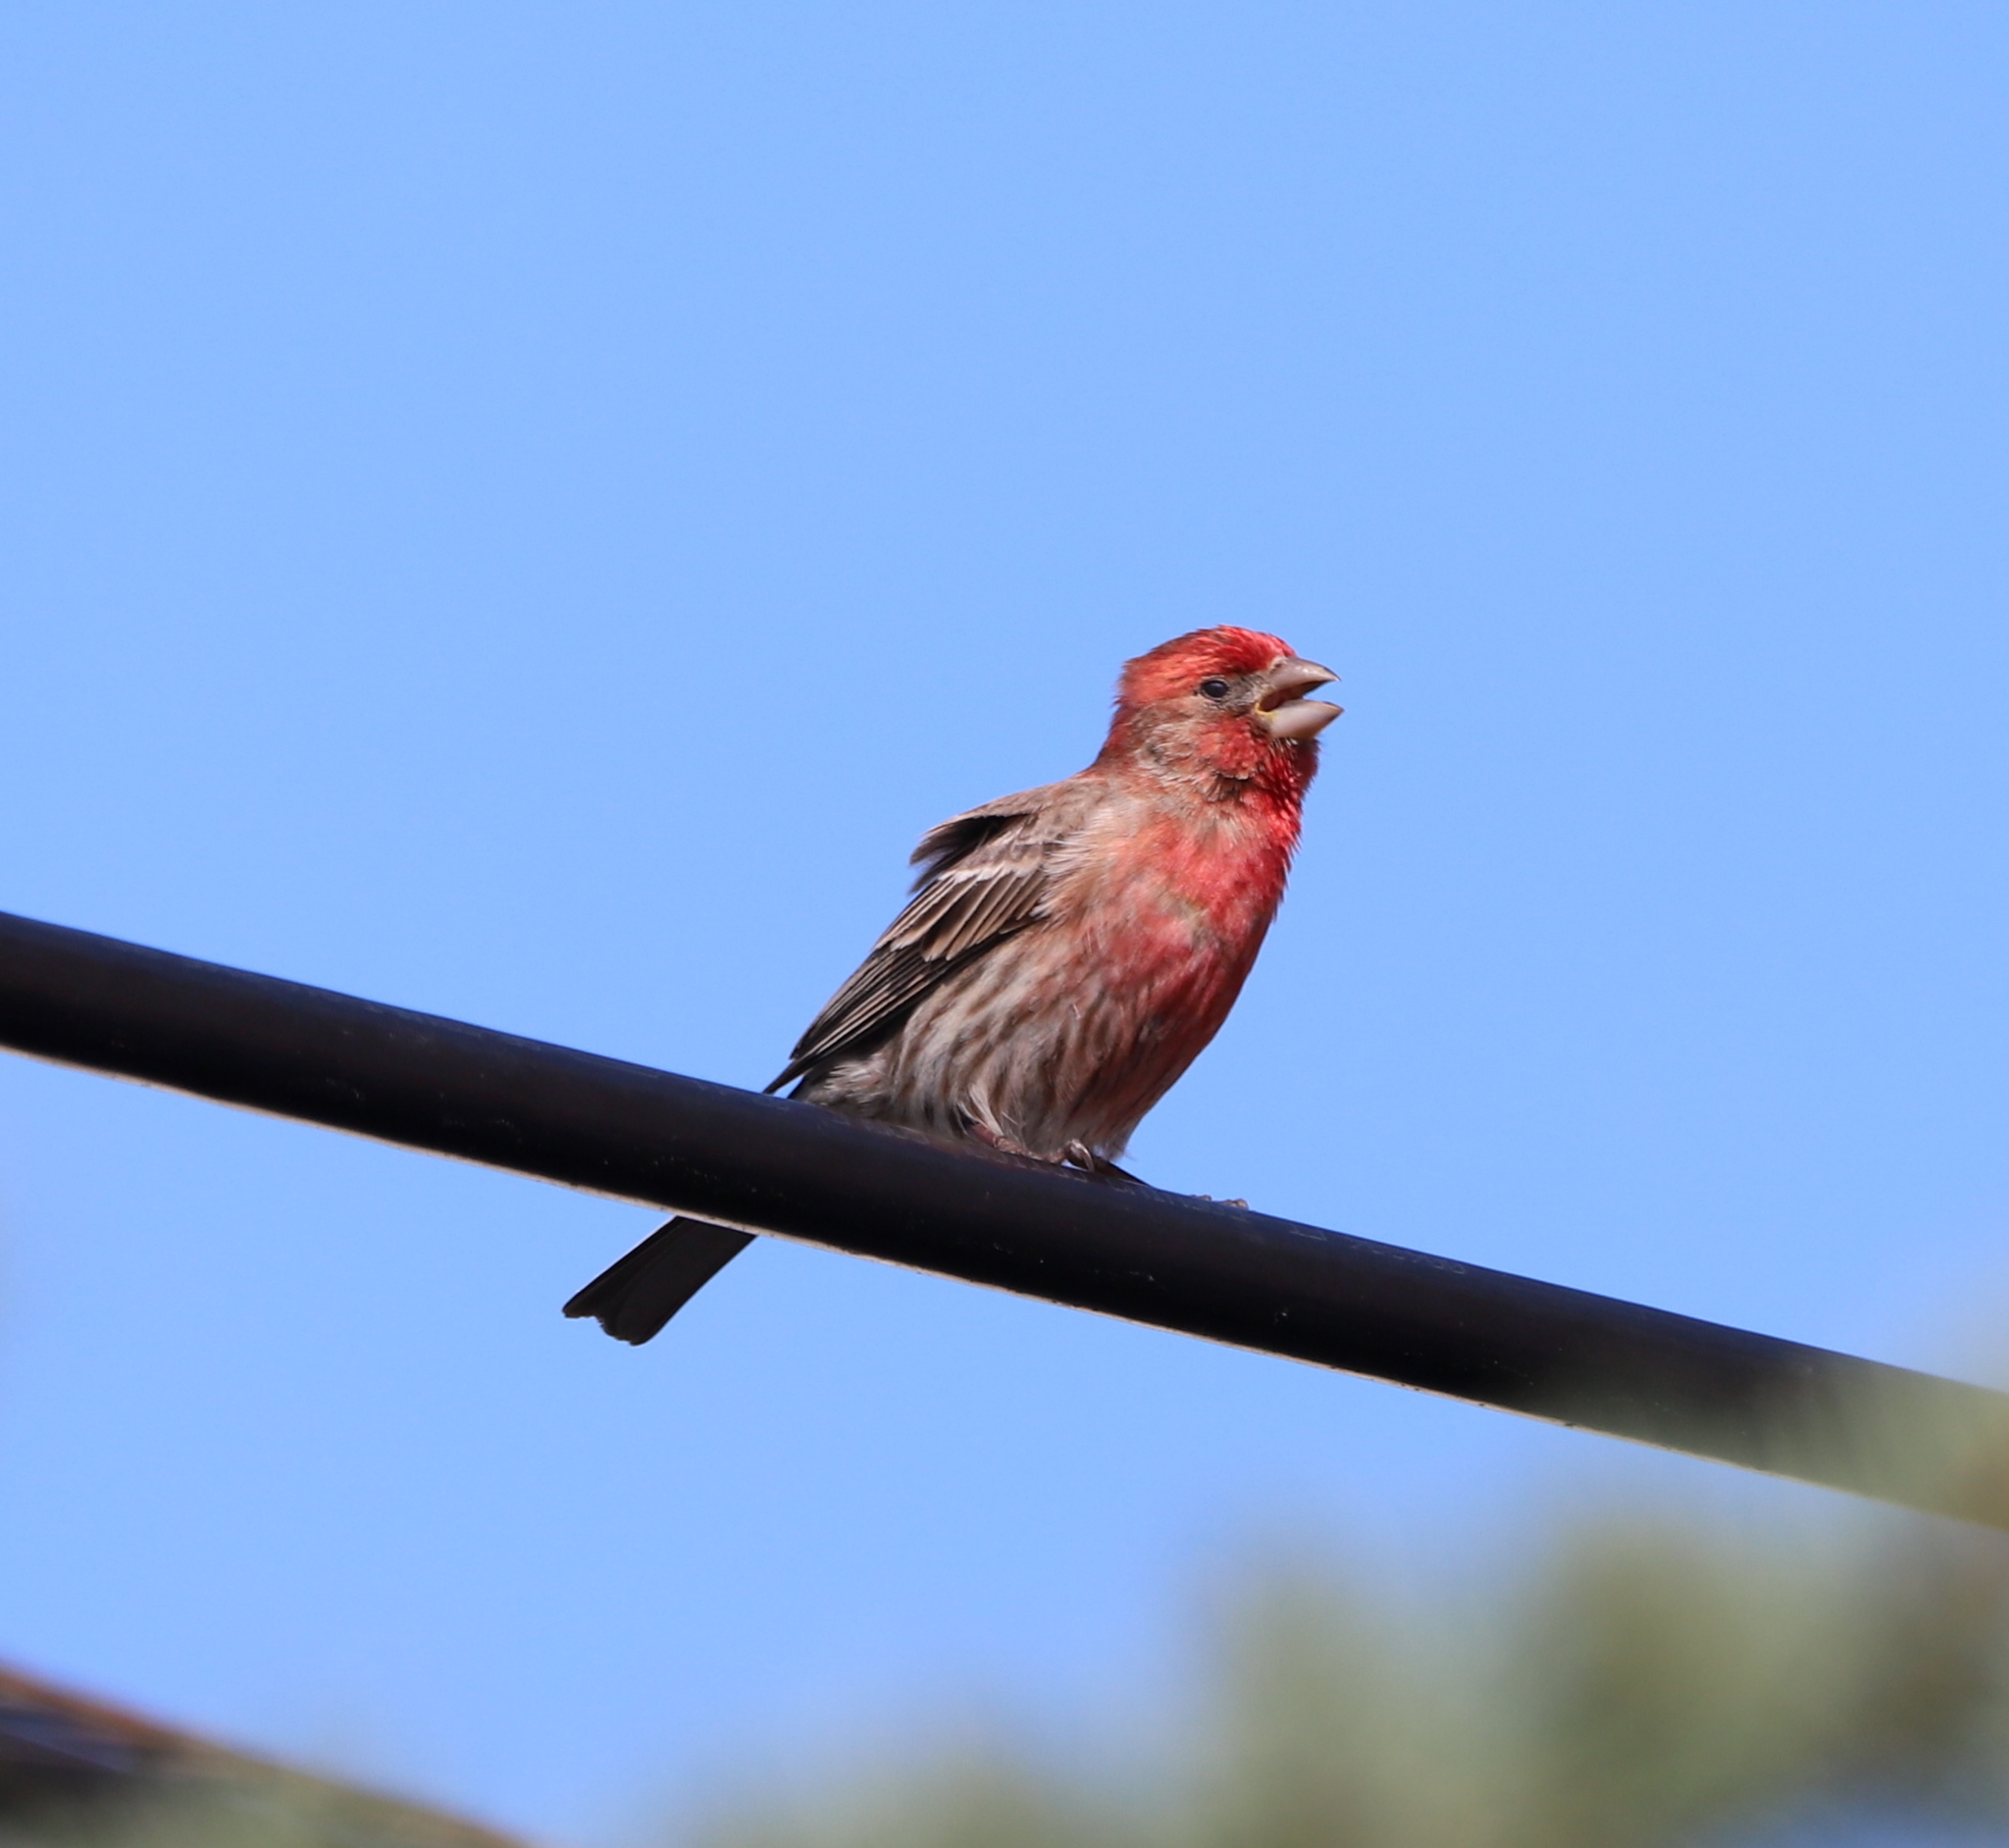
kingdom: Animalia
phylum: Chordata
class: Aves
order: Passeriformes
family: Fringillidae
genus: Haemorhous
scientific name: Haemorhous mexicanus
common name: House finch
